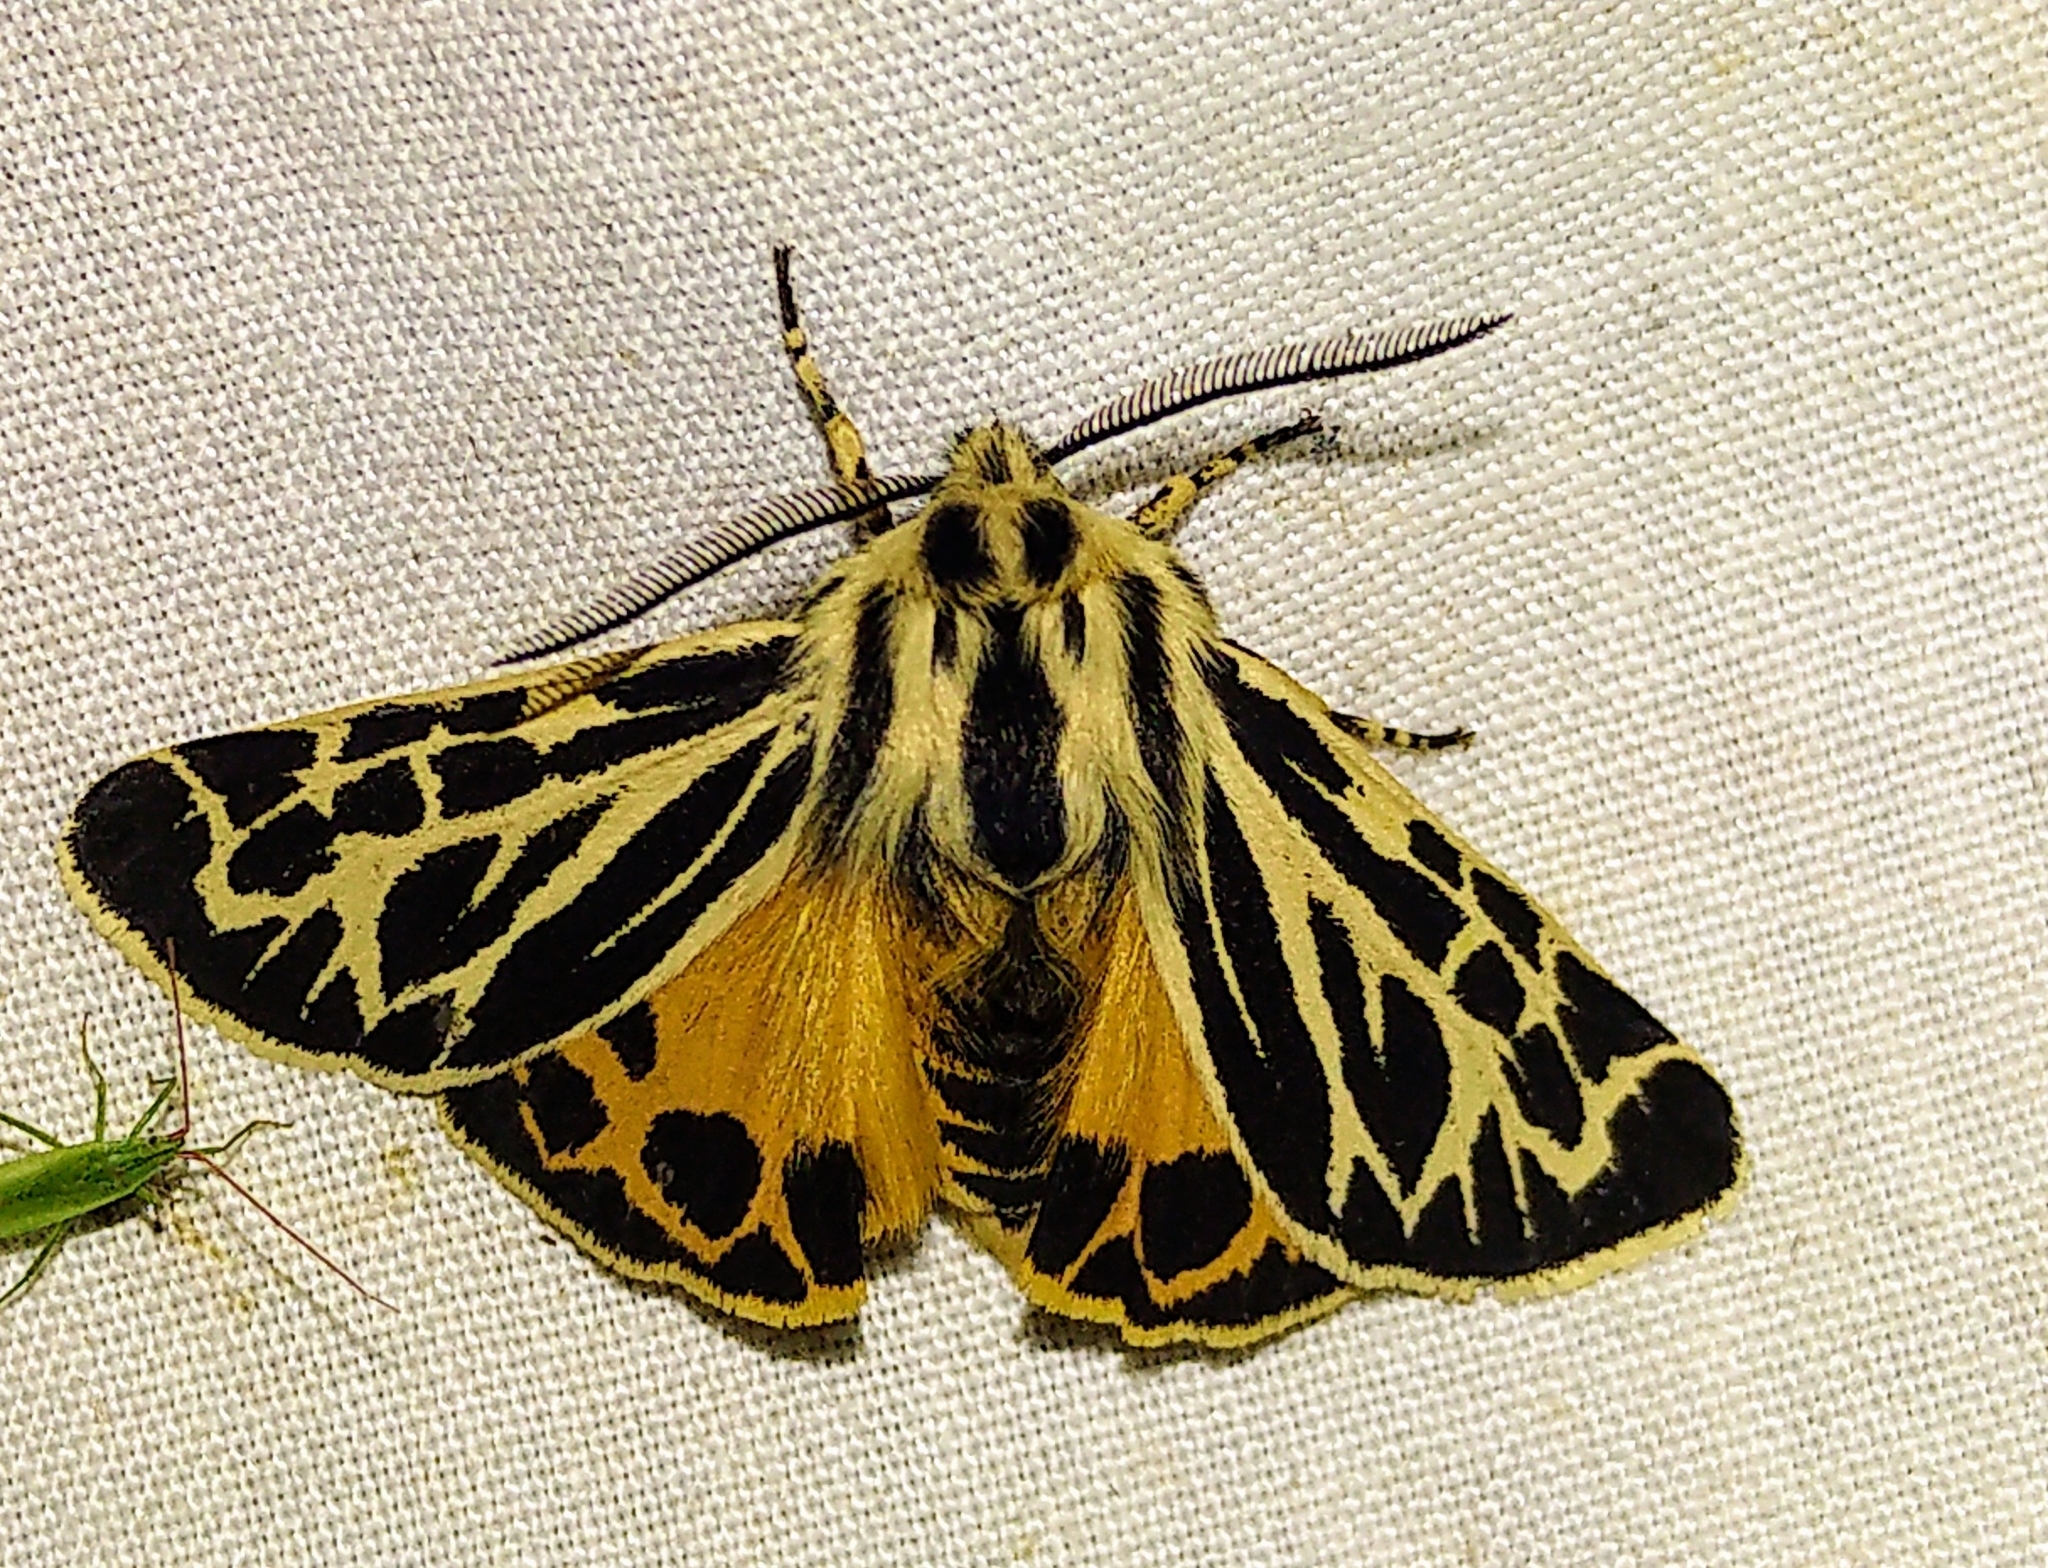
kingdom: Animalia
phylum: Arthropoda
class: Insecta
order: Lepidoptera
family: Erebidae
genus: Apantesis
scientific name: Apantesis obliterata
